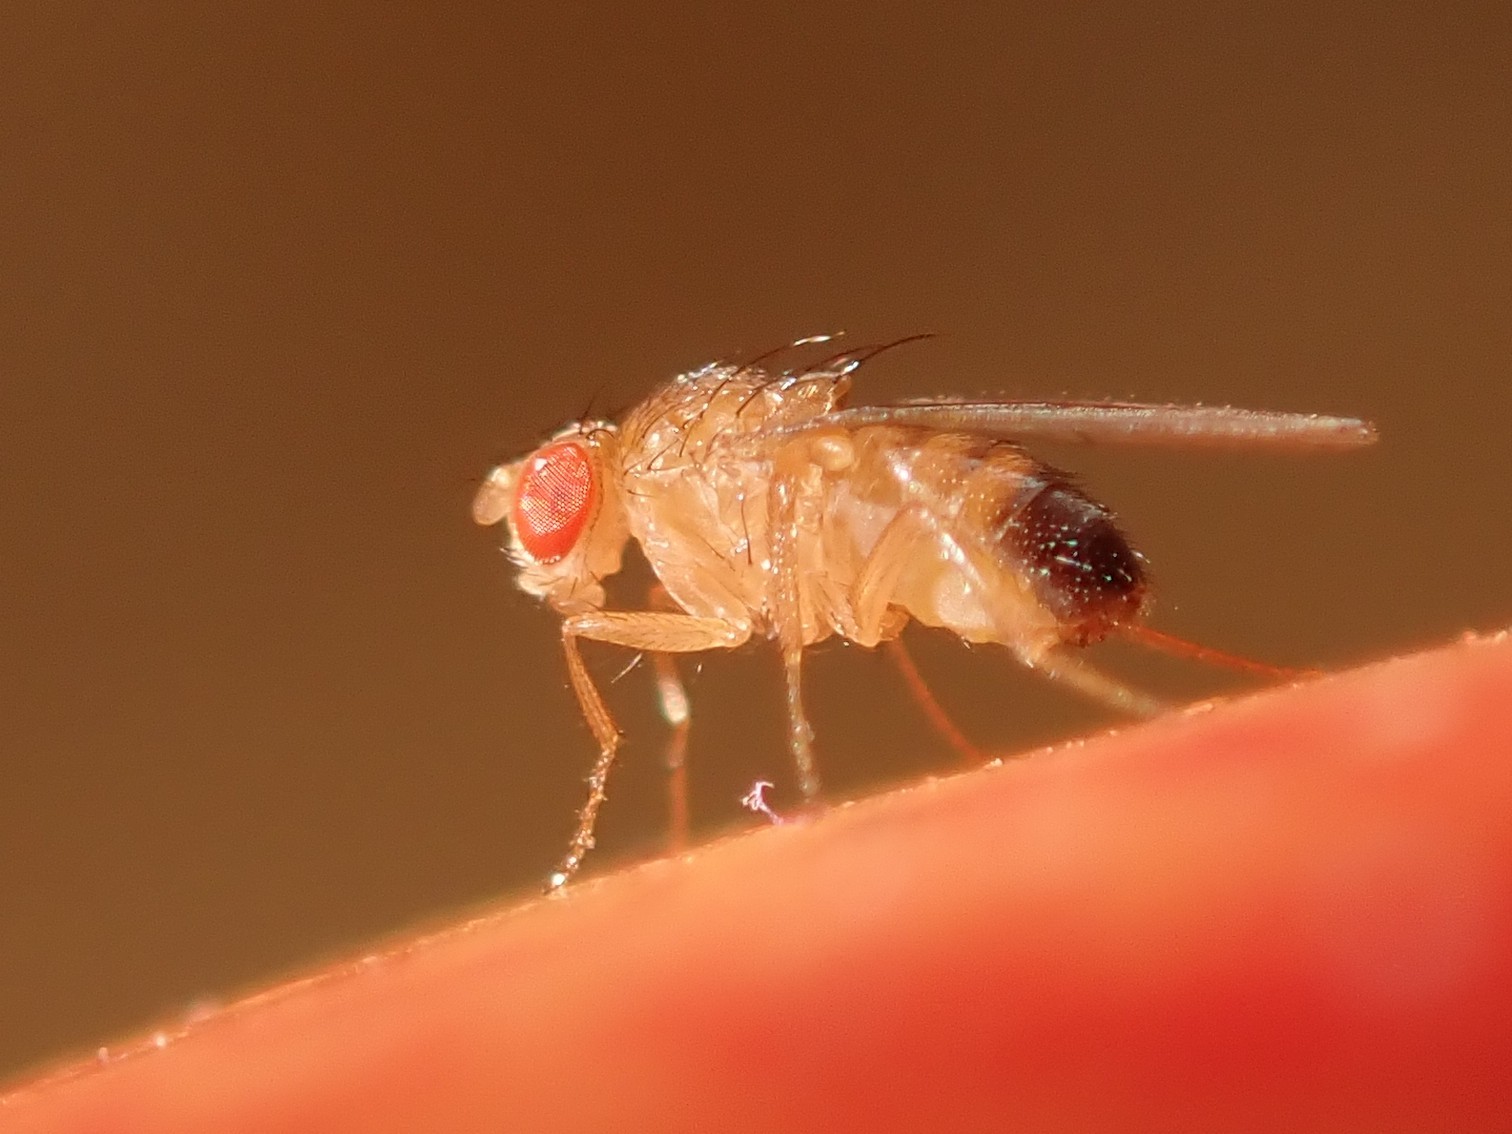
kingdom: Animalia
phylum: Arthropoda
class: Insecta
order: Diptera
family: Drosophilidae
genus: Drosophila
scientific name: Drosophila melanogaster
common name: Pomace fly
